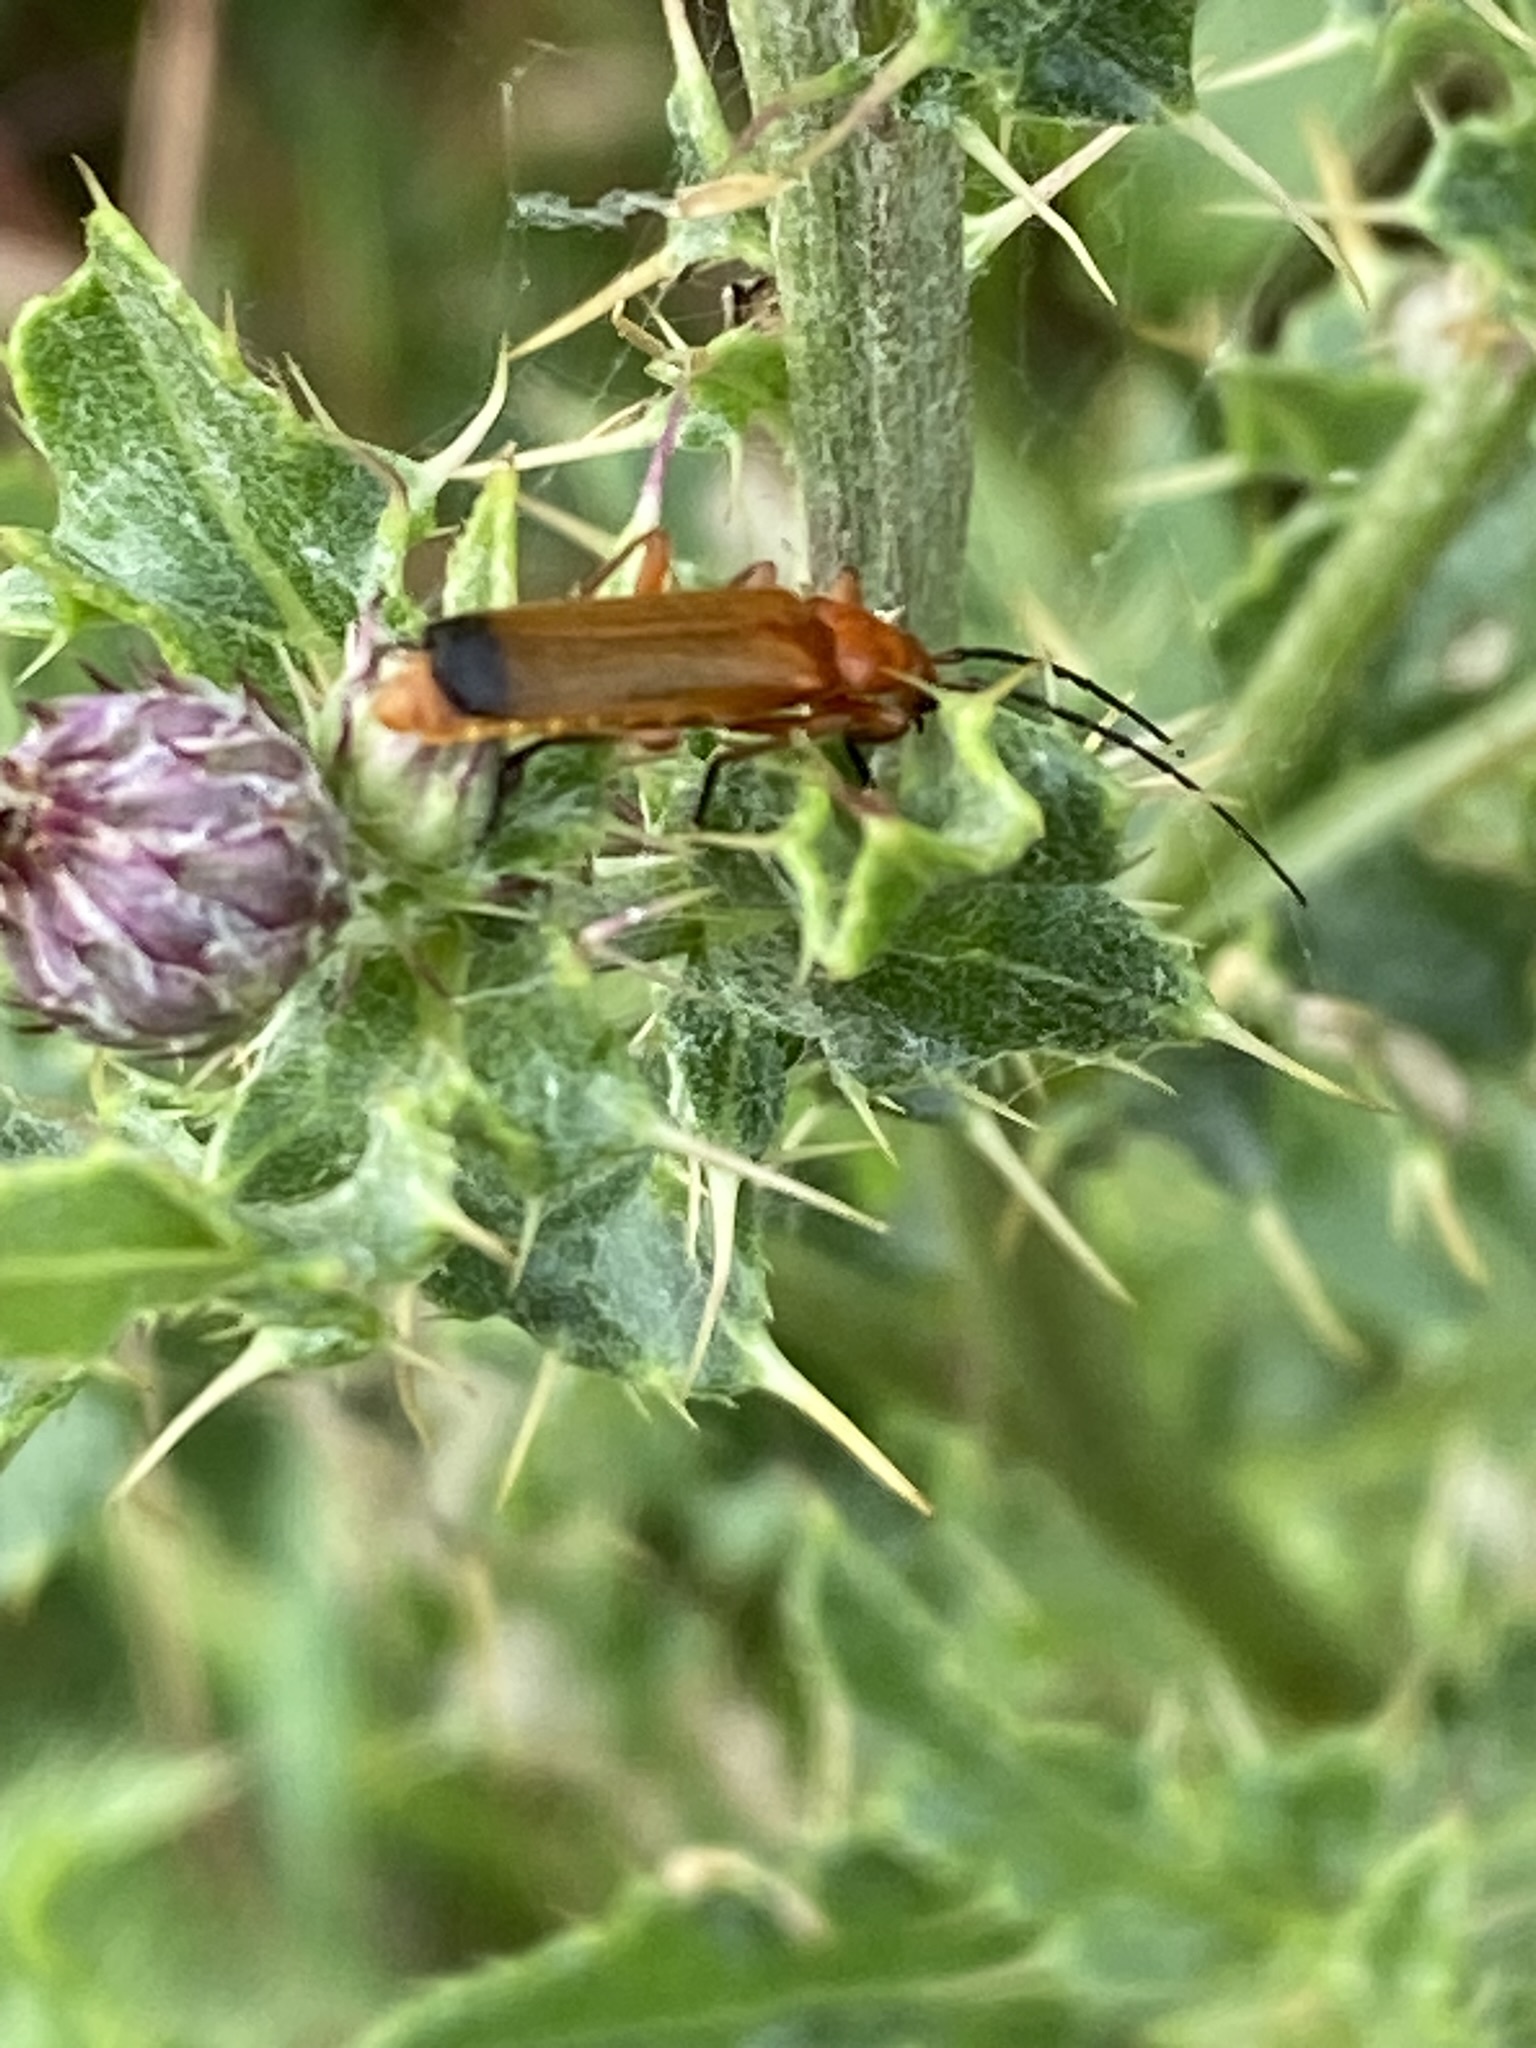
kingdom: Animalia
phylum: Arthropoda
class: Insecta
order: Coleoptera
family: Cantharidae
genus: Rhagonycha
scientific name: Rhagonycha fulva
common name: Common red soldier beetle
